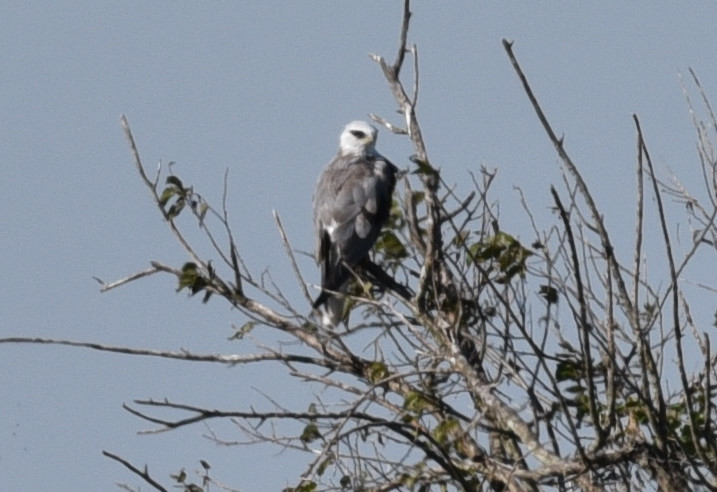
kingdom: Animalia
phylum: Chordata
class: Aves
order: Accipitriformes
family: Accipitridae
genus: Elanus
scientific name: Elanus leucurus
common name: White-tailed kite
